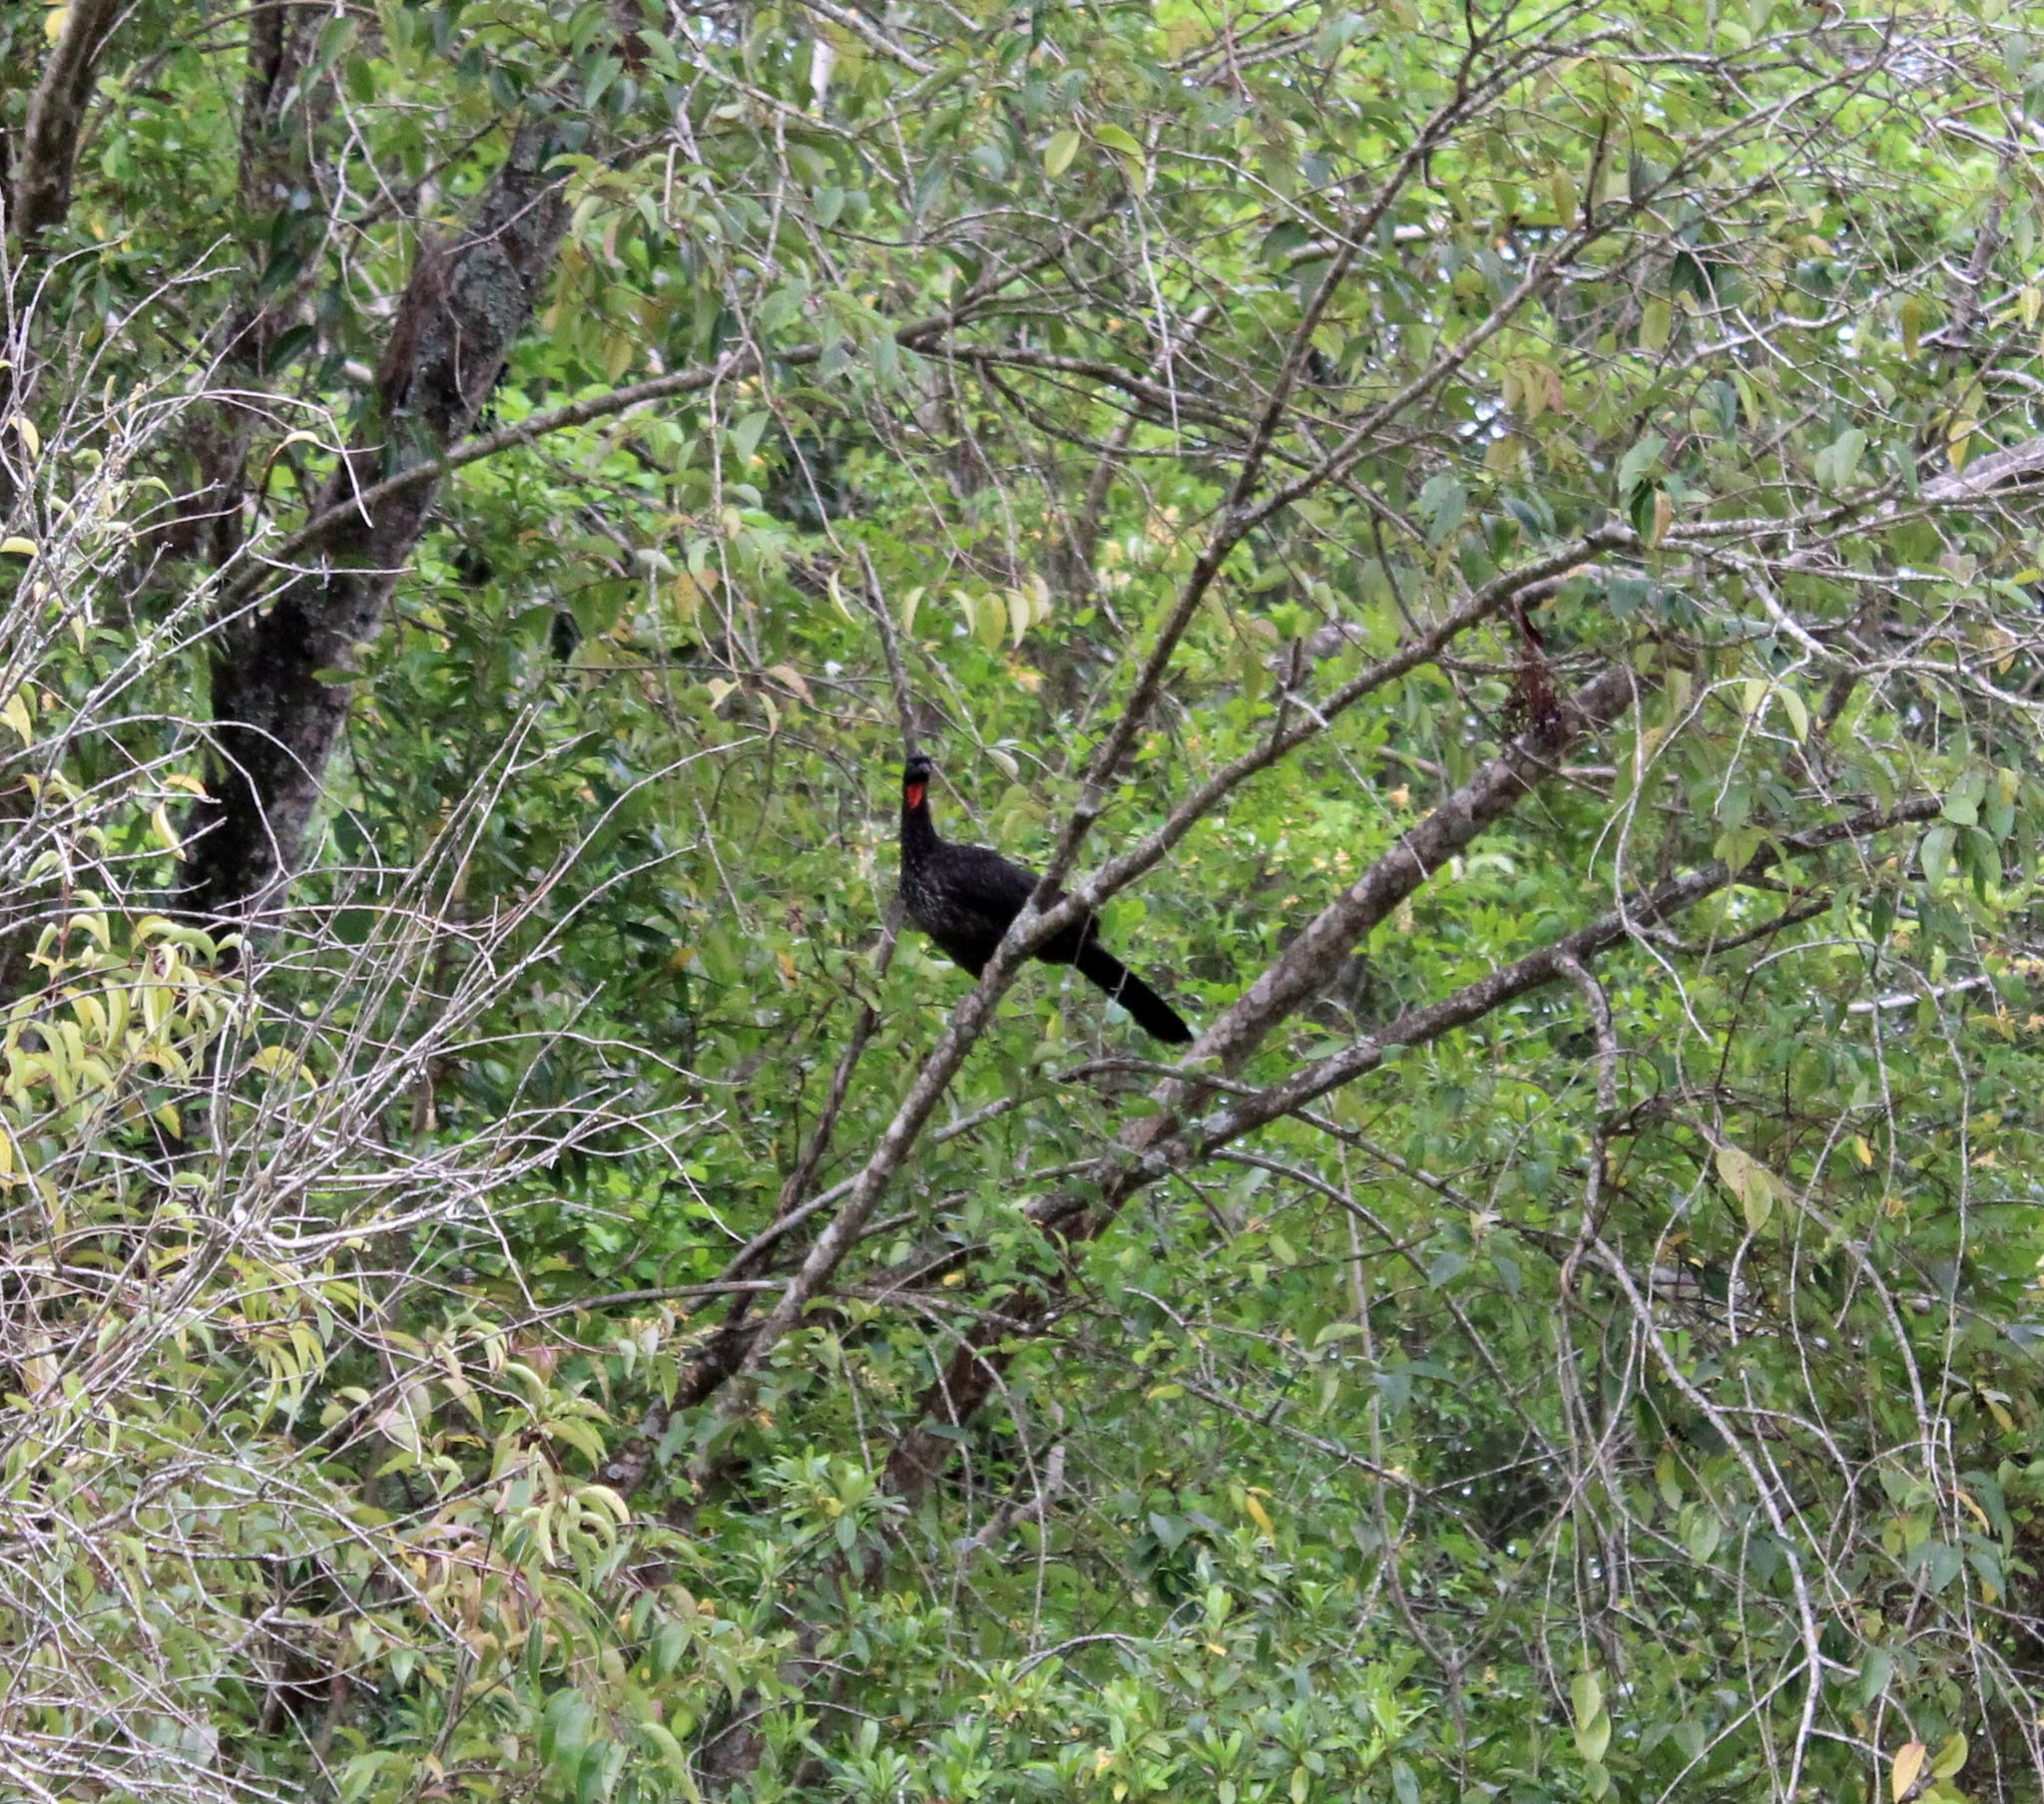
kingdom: Animalia
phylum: Chordata
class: Aves
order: Galliformes
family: Cracidae
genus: Penelope
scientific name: Penelope obscura
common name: Dusky-legged guan
